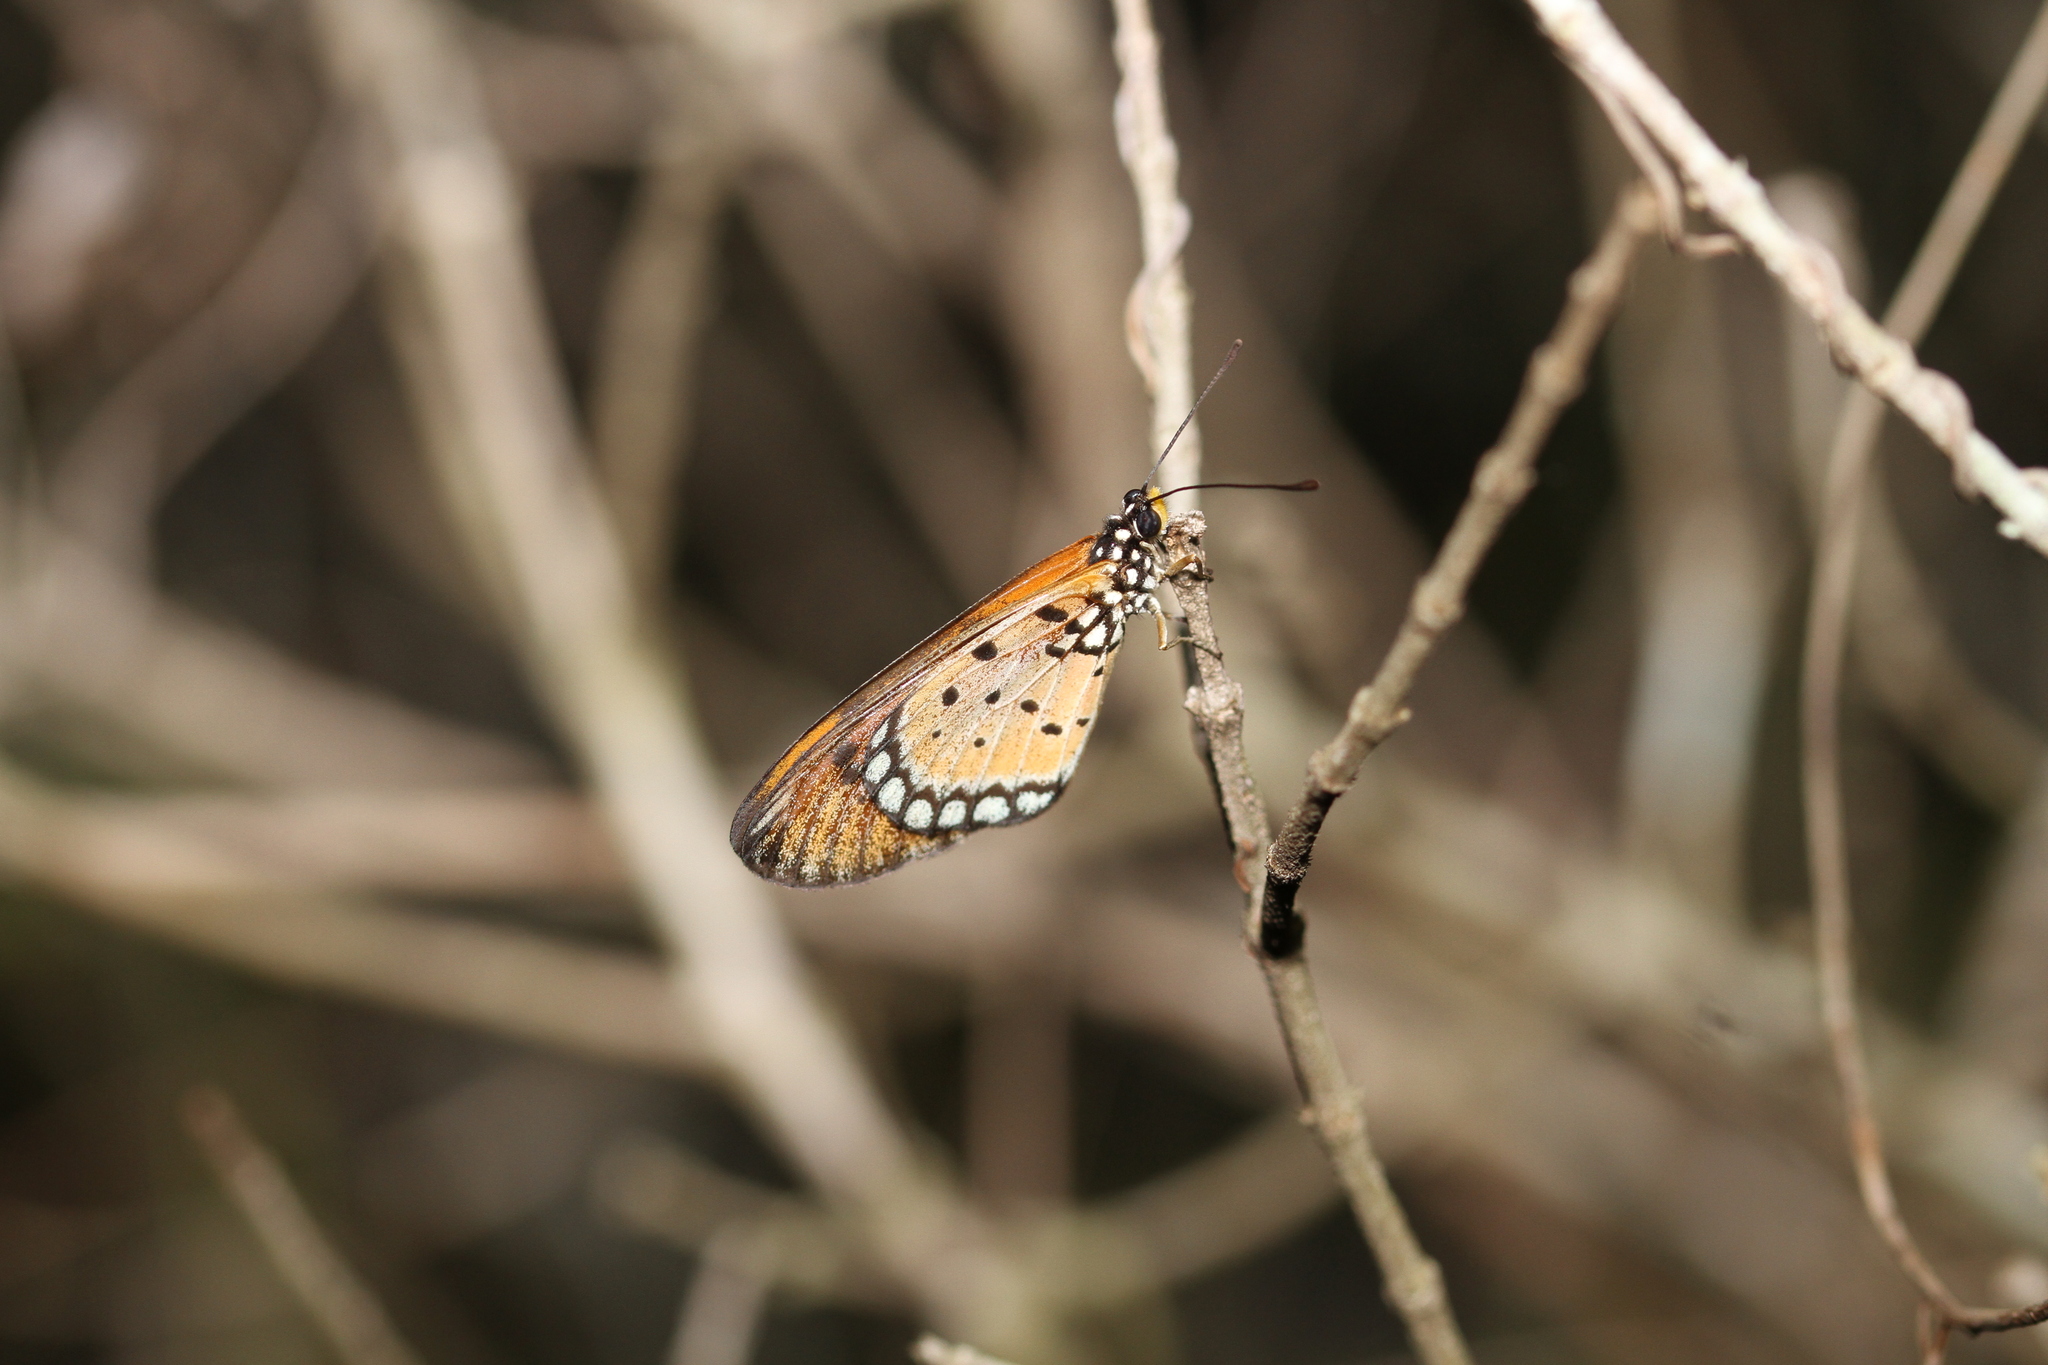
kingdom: Animalia
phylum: Arthropoda
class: Insecta
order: Lepidoptera
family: Nymphalidae
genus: Acraea
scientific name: Acraea terpsicore
